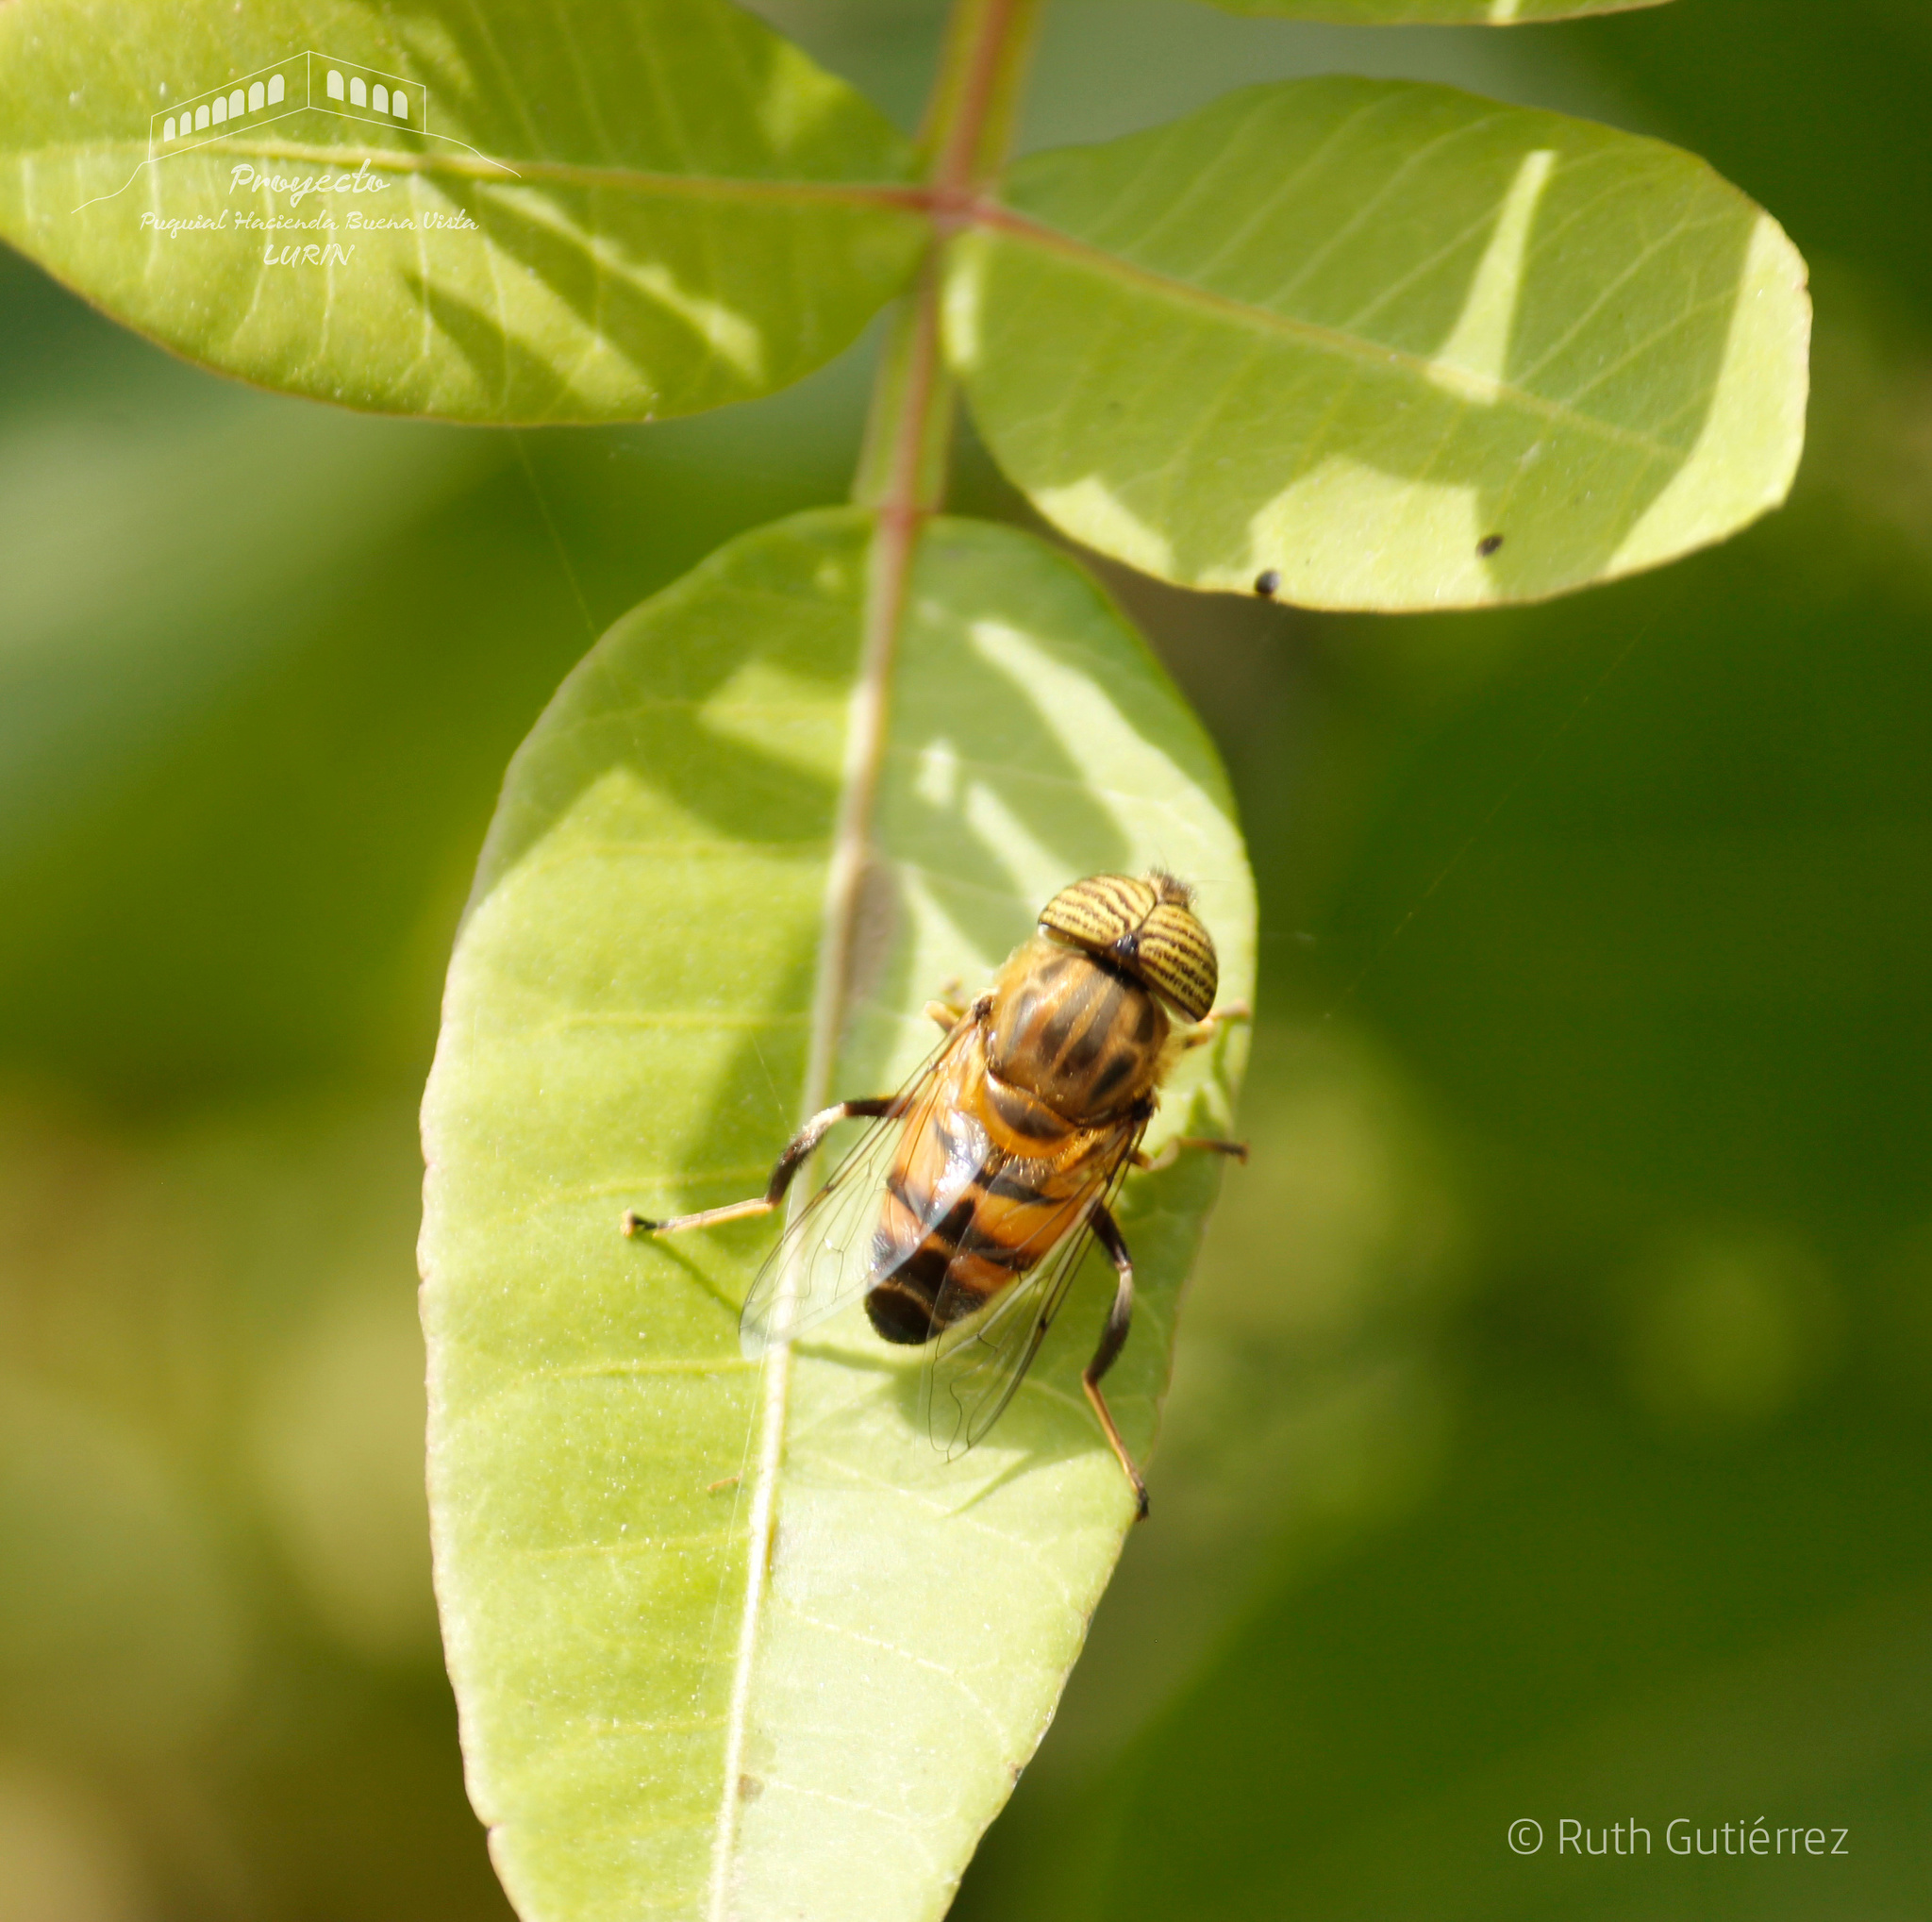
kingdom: Animalia
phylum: Arthropoda
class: Insecta
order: Diptera
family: Syrphidae
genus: Eristalinus
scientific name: Eristalinus taeniops
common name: Syrphid fly
